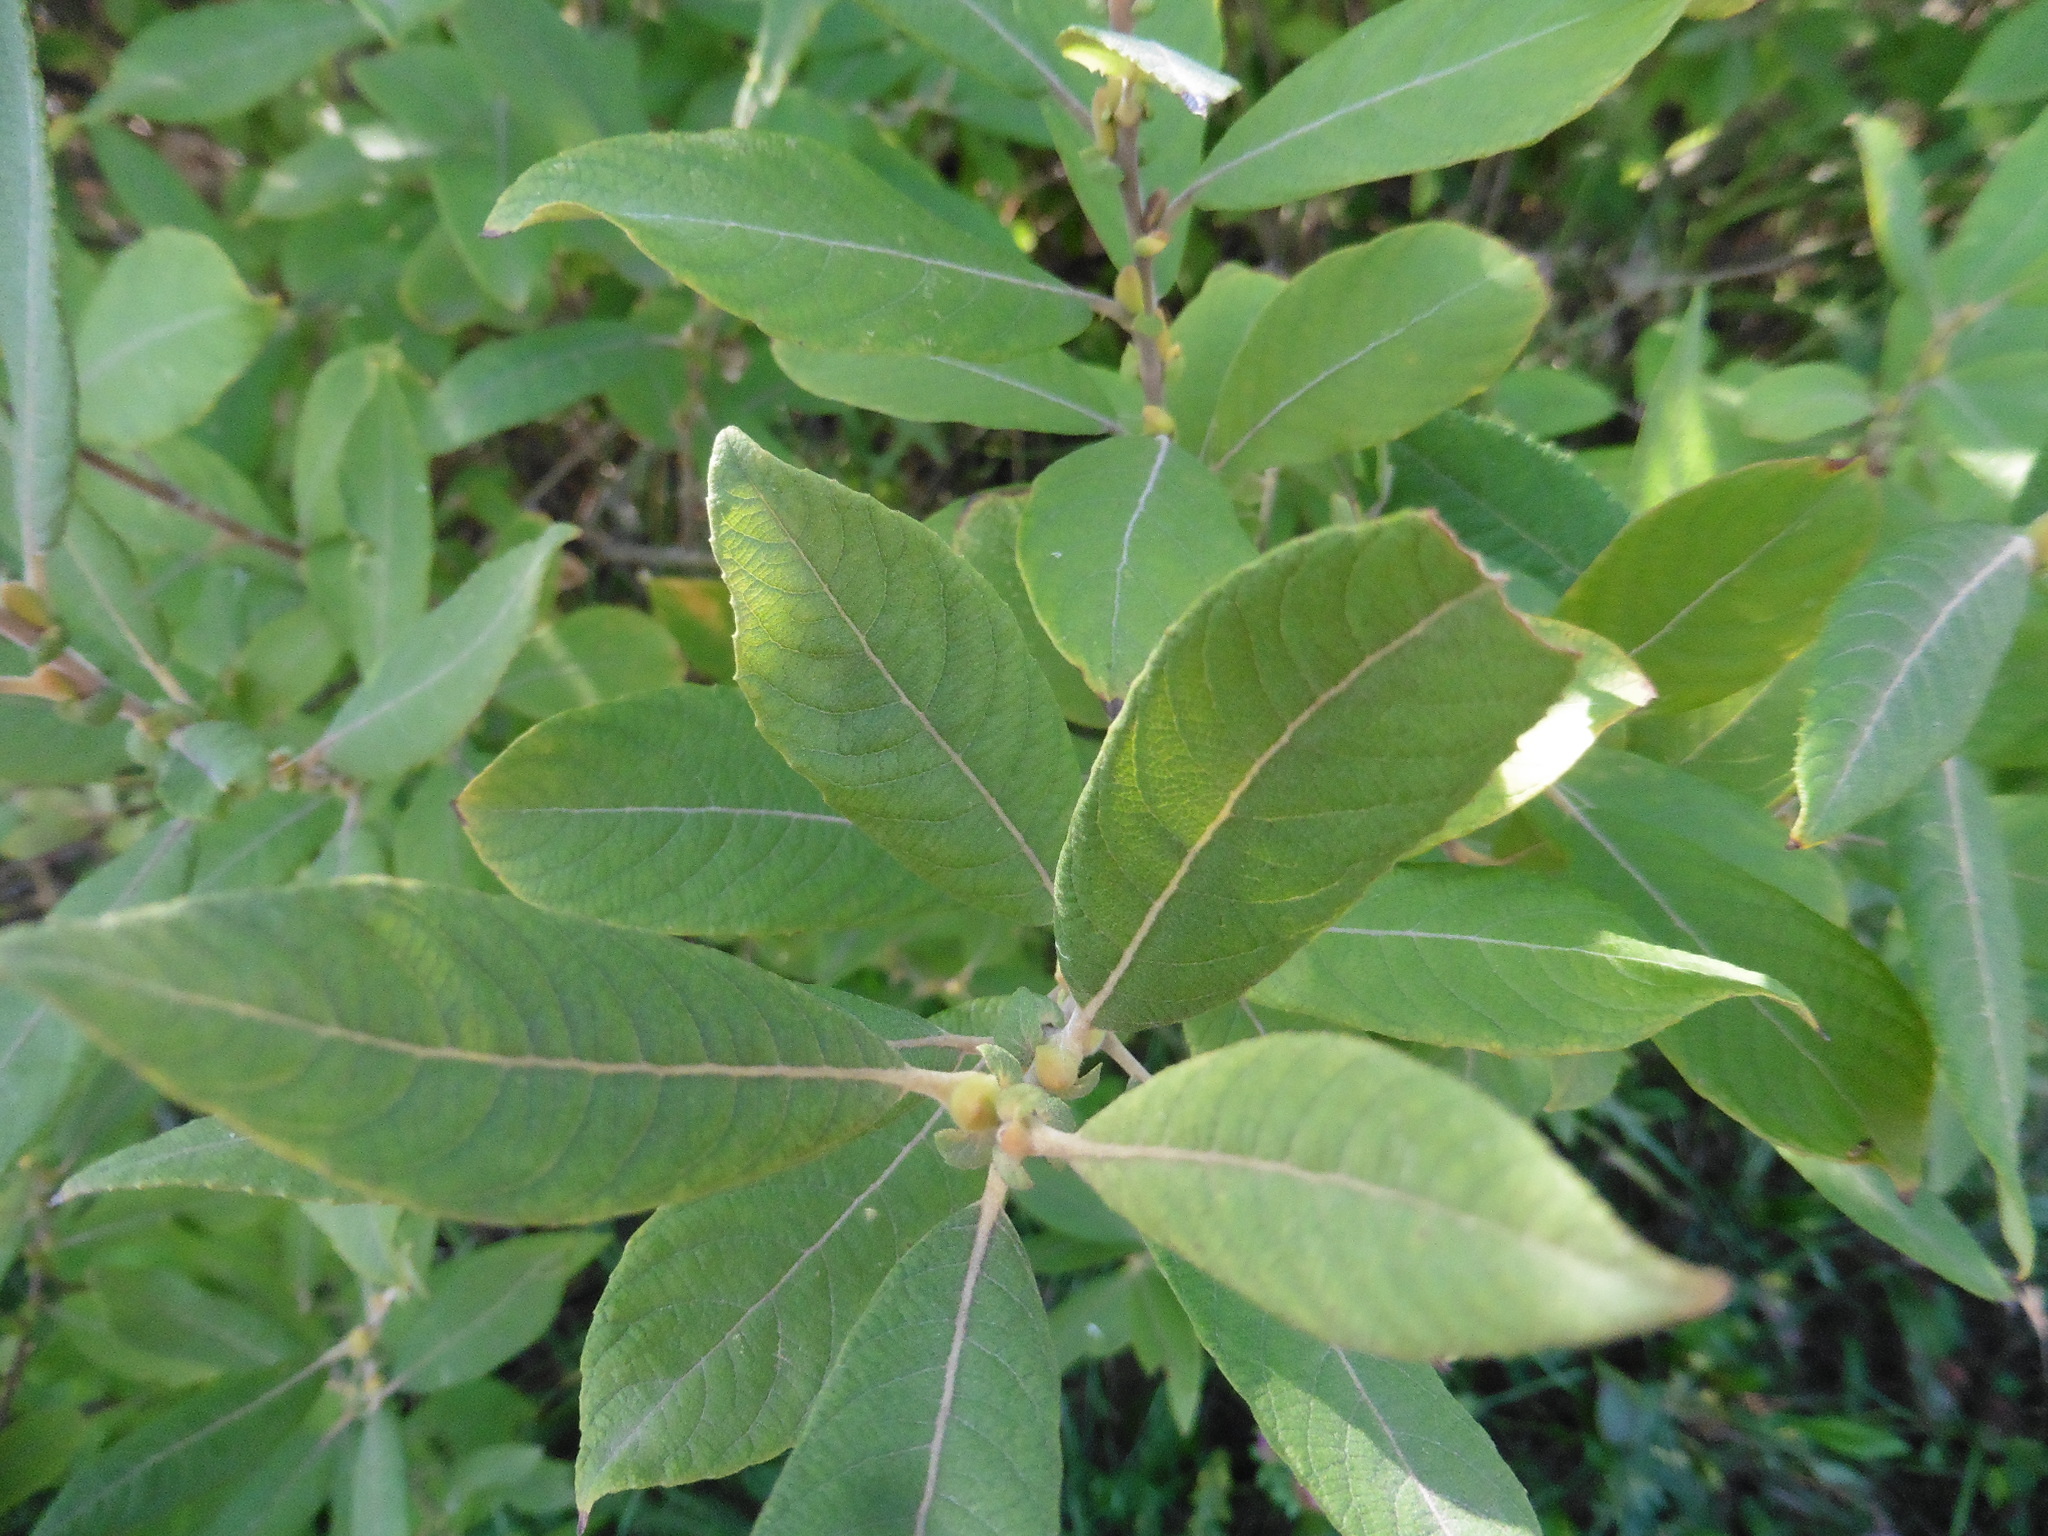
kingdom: Plantae
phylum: Tracheophyta
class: Magnoliopsida
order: Malpighiales
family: Salicaceae
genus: Salix
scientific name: Salix cinerea
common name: Common sallow
